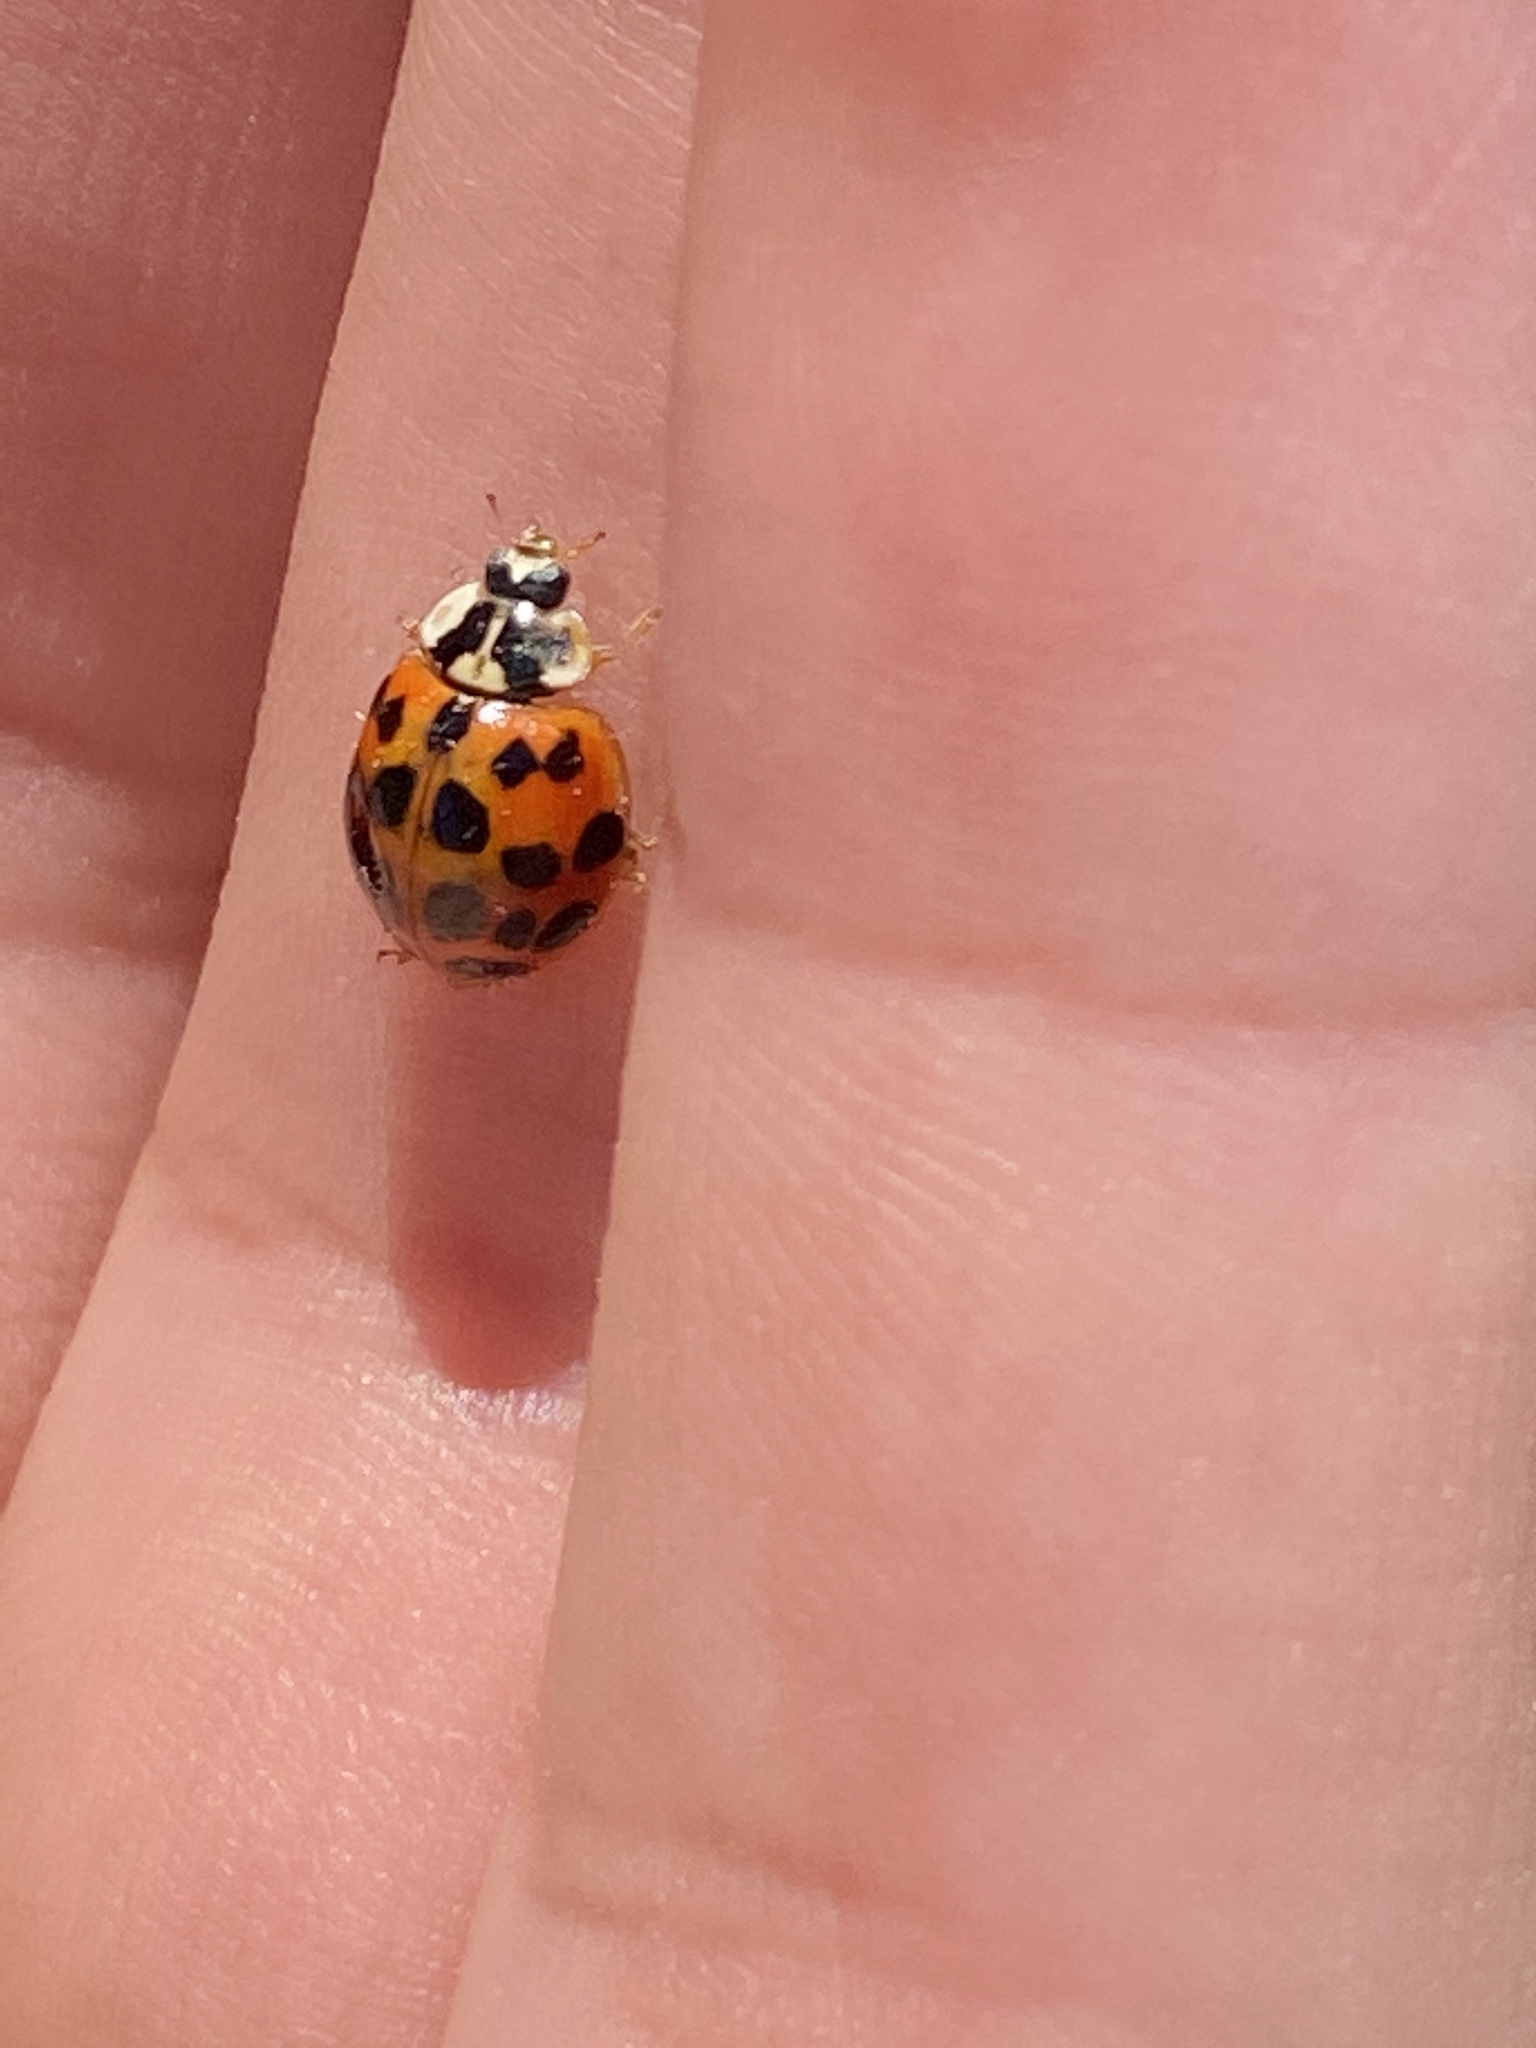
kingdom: Animalia
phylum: Arthropoda
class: Insecta
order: Coleoptera
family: Coccinellidae
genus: Harmonia
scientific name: Harmonia axyridis
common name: Harlequin ladybird
